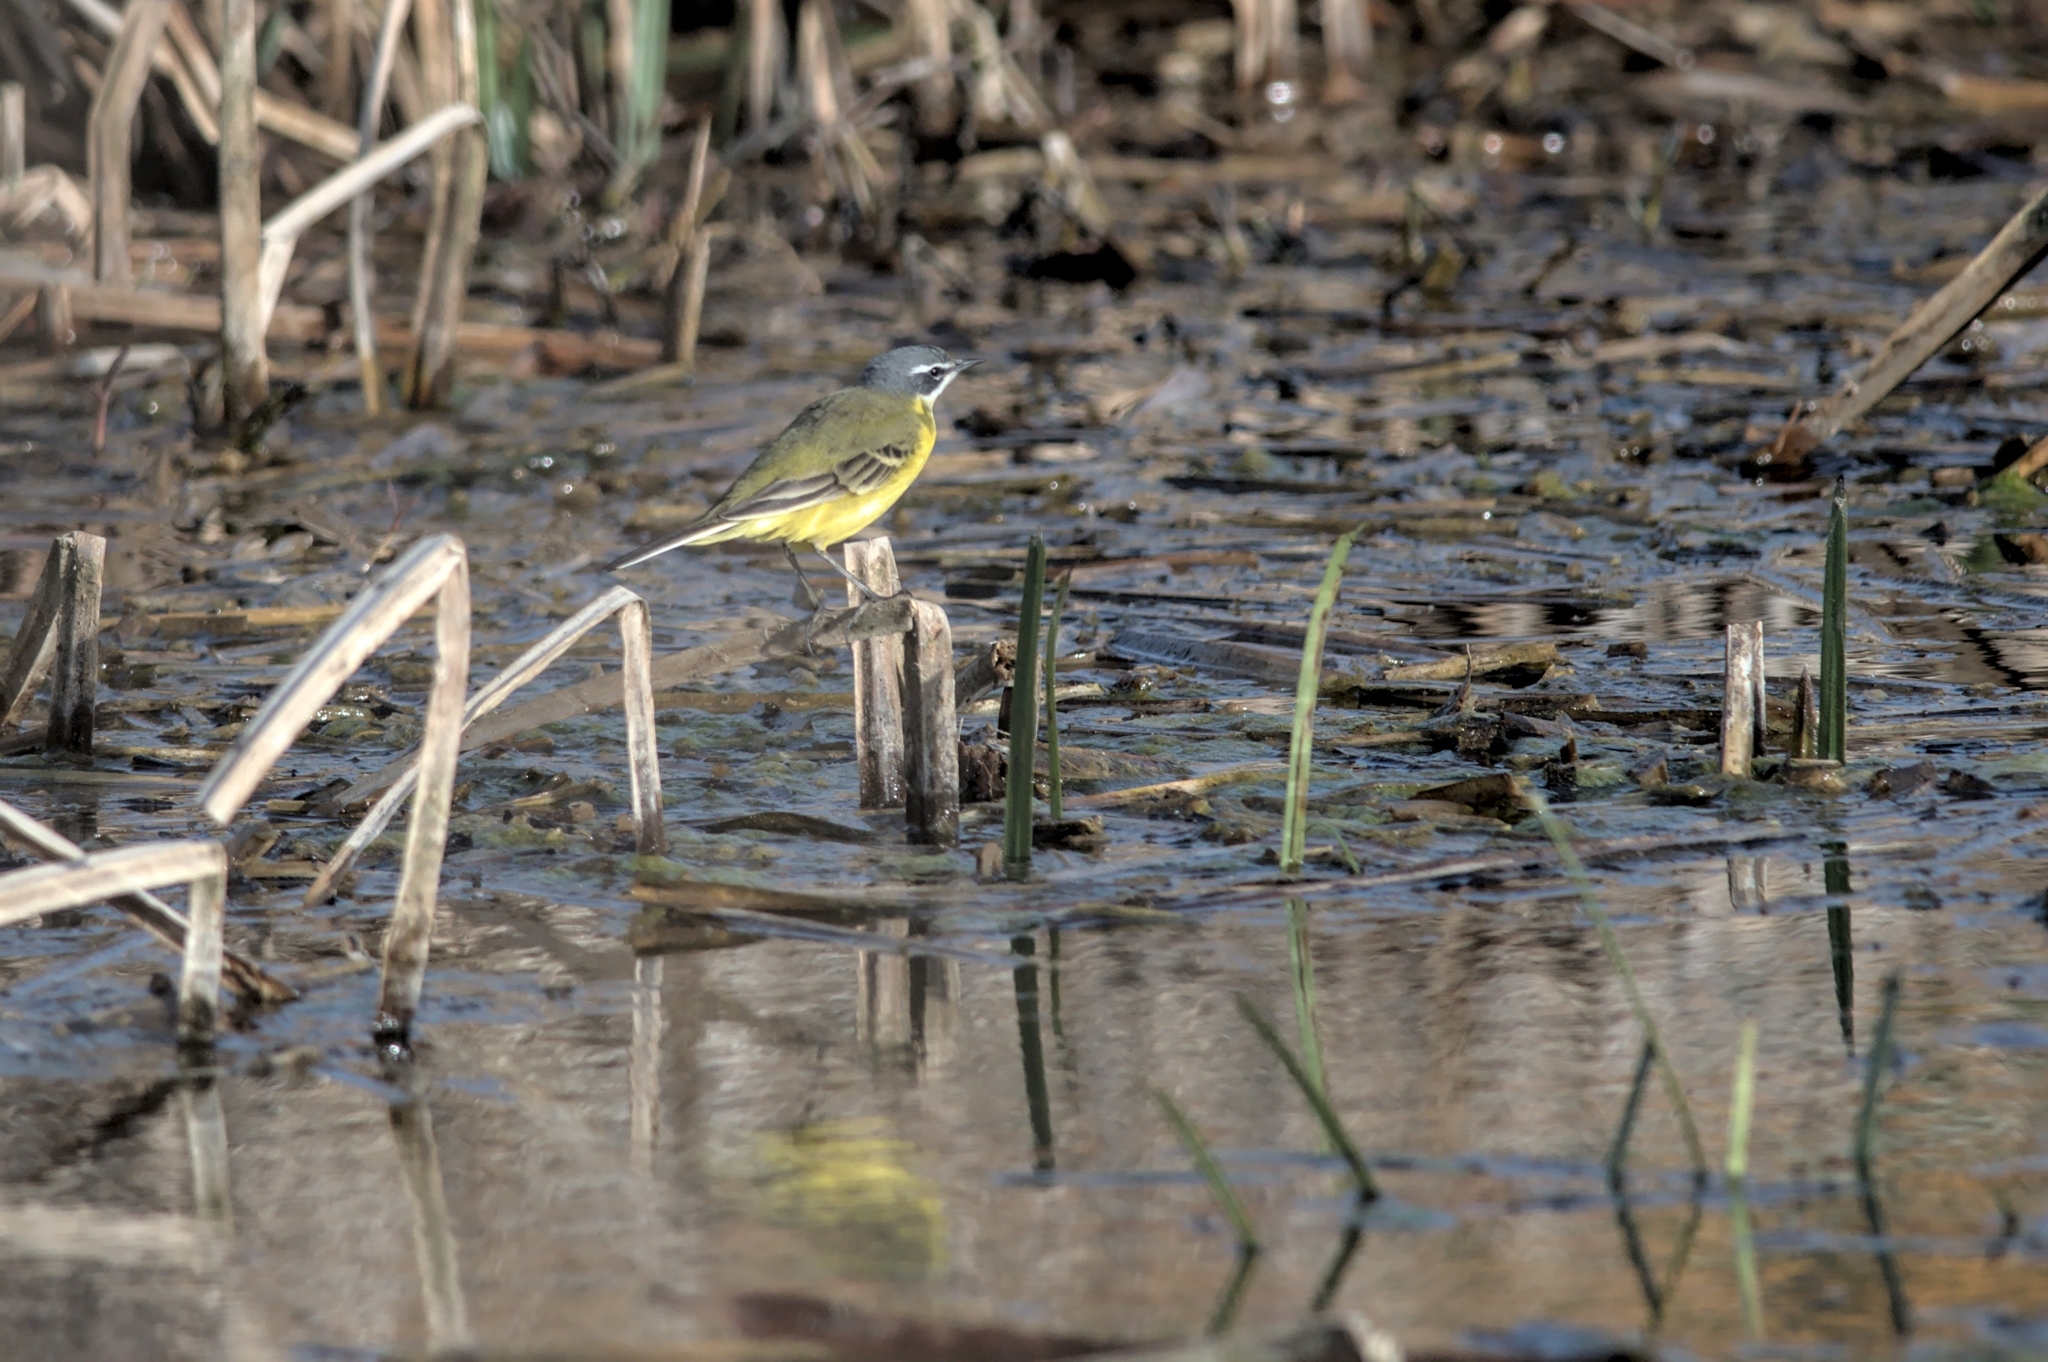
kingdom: Animalia
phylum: Chordata
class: Aves
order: Passeriformes
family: Motacillidae
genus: Motacilla
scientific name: Motacilla flava
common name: Western yellow wagtail
